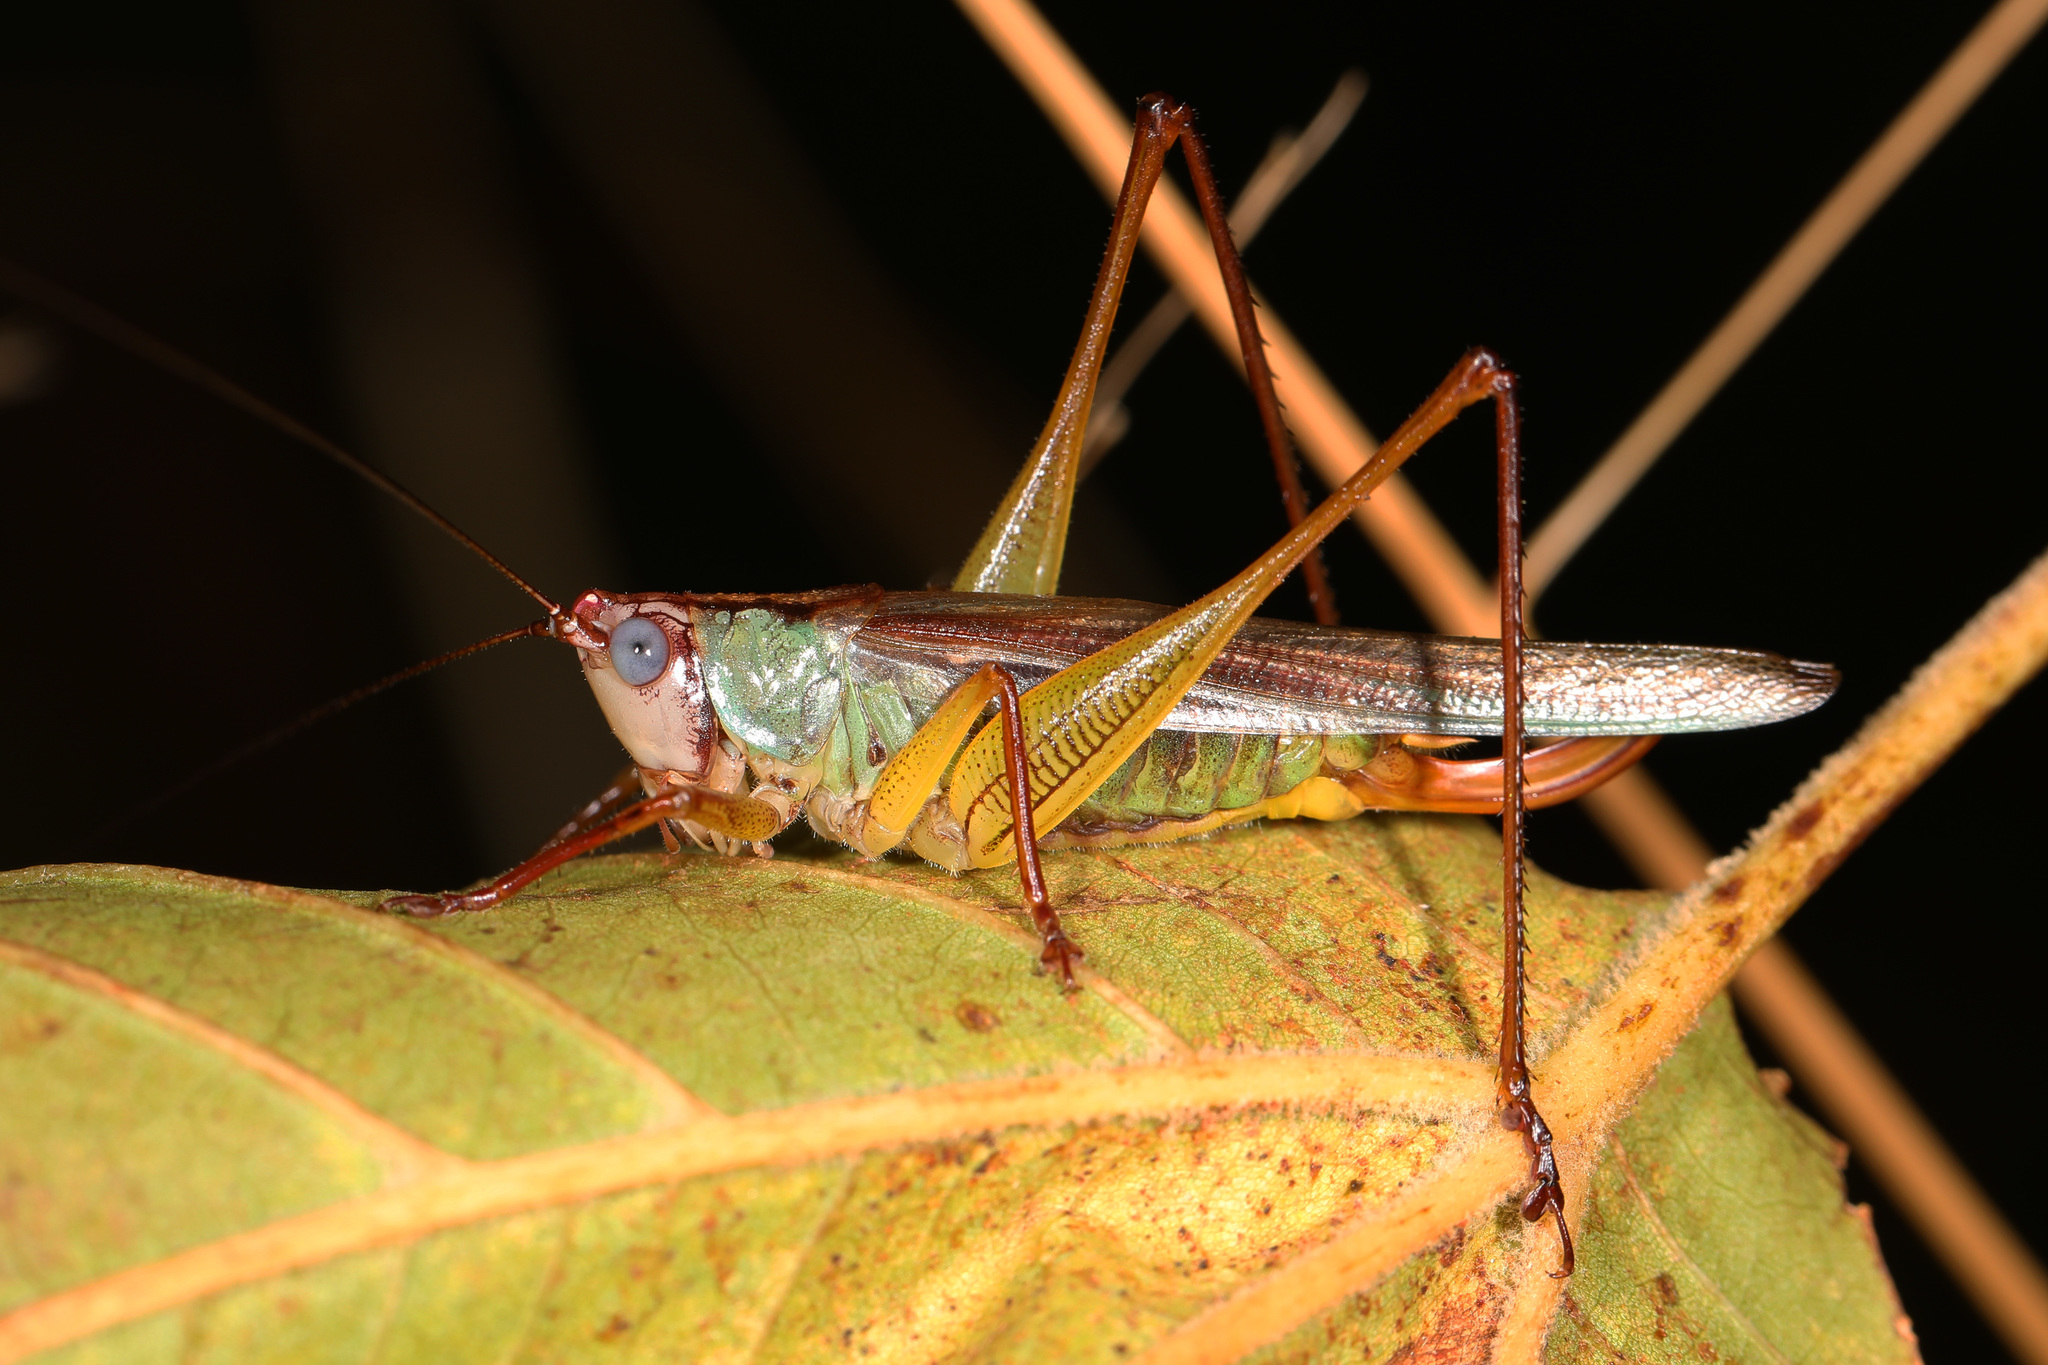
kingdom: Animalia
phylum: Arthropoda
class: Insecta
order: Orthoptera
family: Tettigoniidae
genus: Orchelimum
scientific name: Orchelimum pulchellum
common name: Handsome meadow katydid
